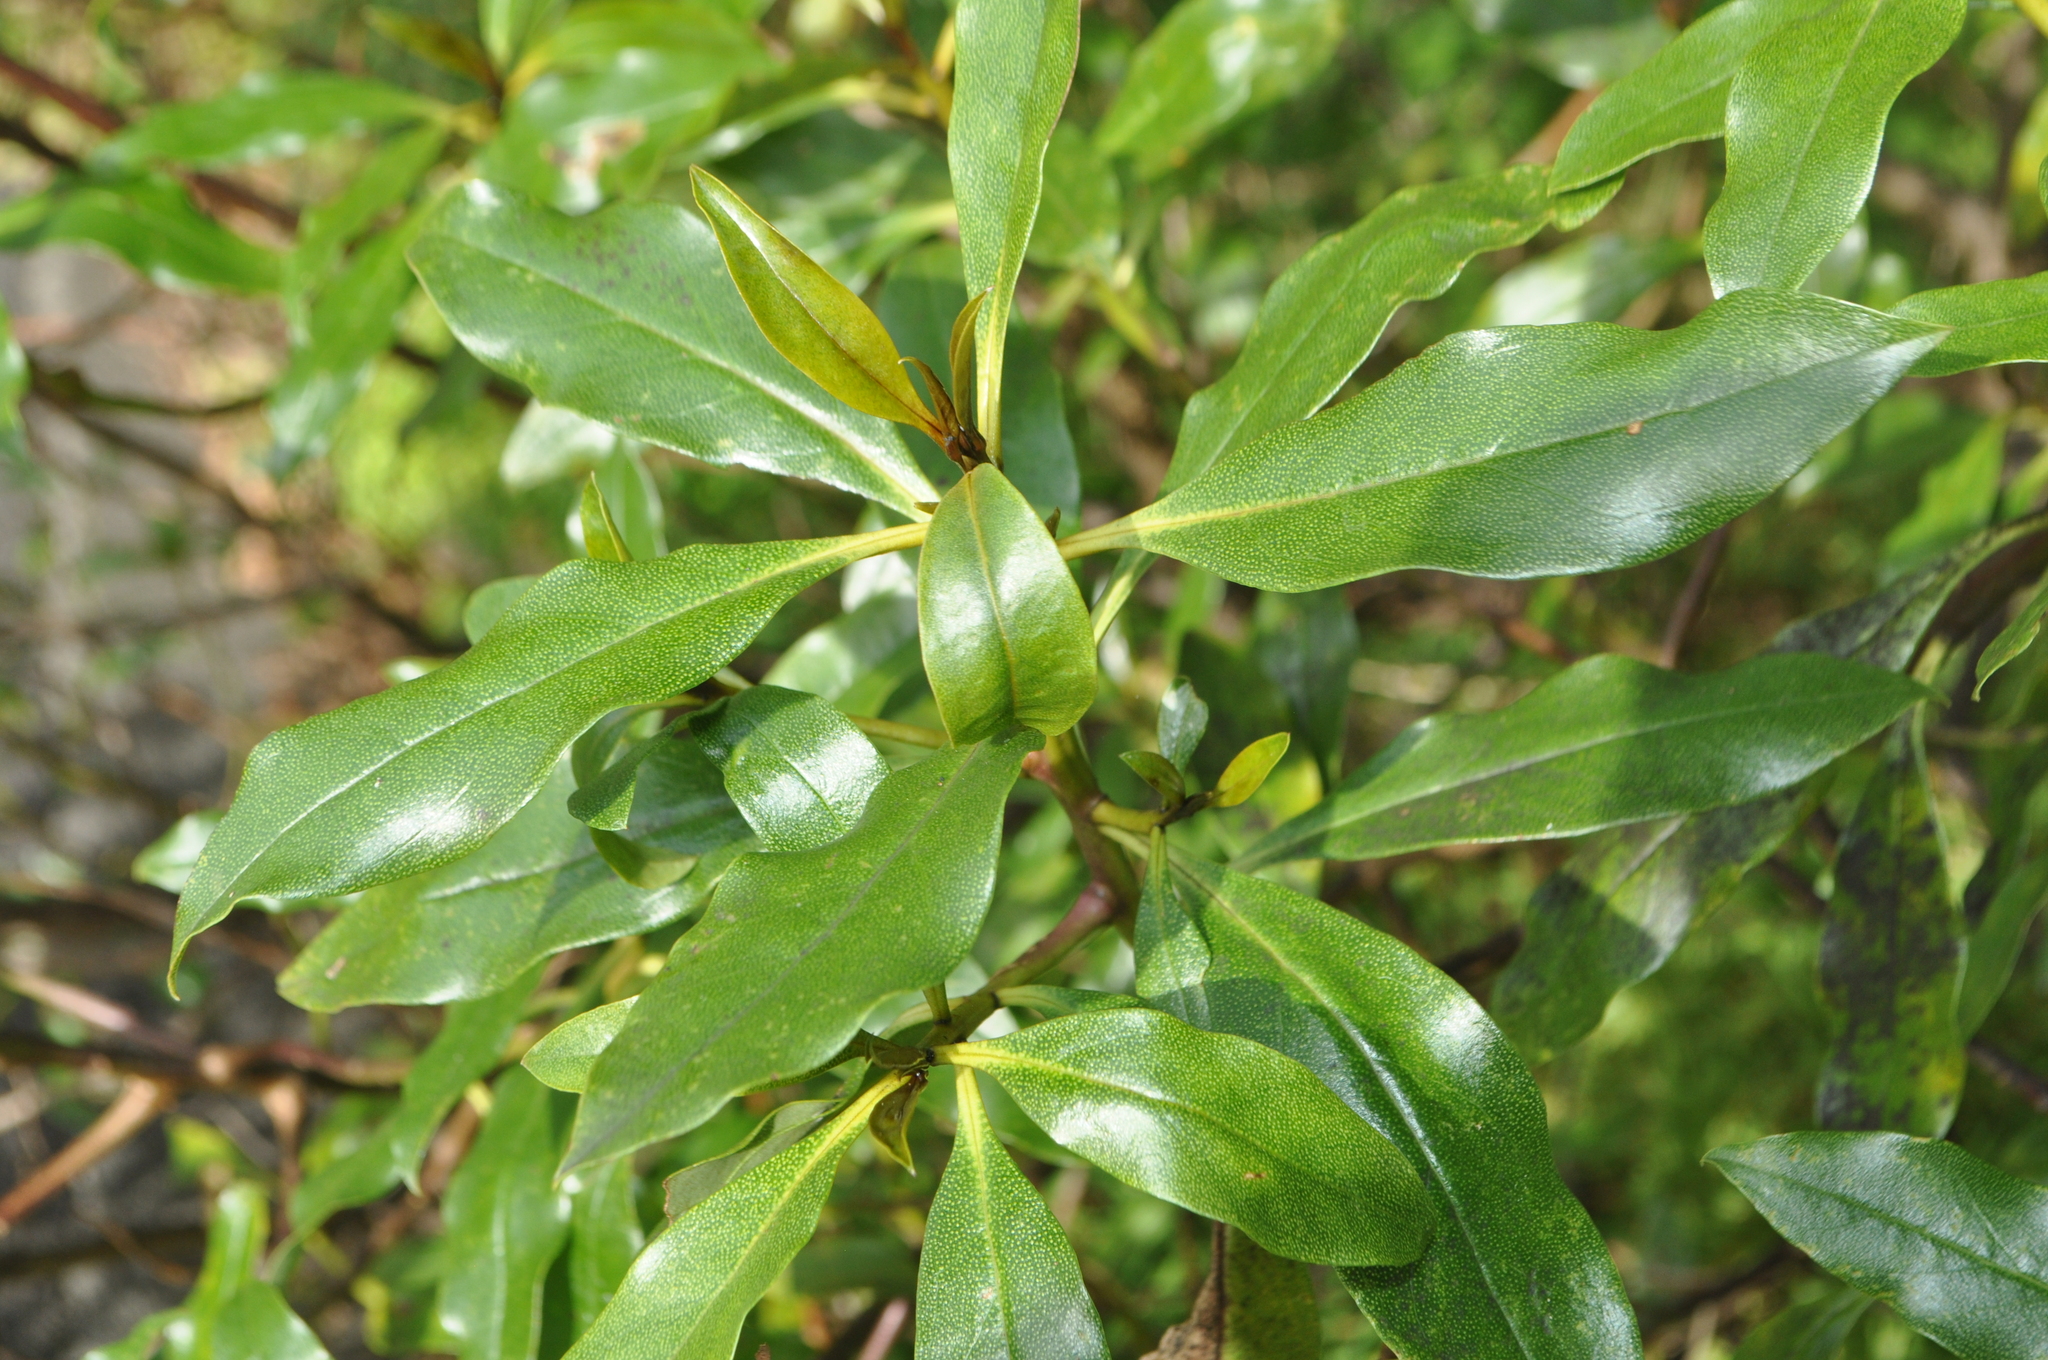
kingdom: Plantae
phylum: Tracheophyta
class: Magnoliopsida
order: Lamiales
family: Scrophulariaceae
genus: Myoporum
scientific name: Myoporum laetum
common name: Ngaio tree
